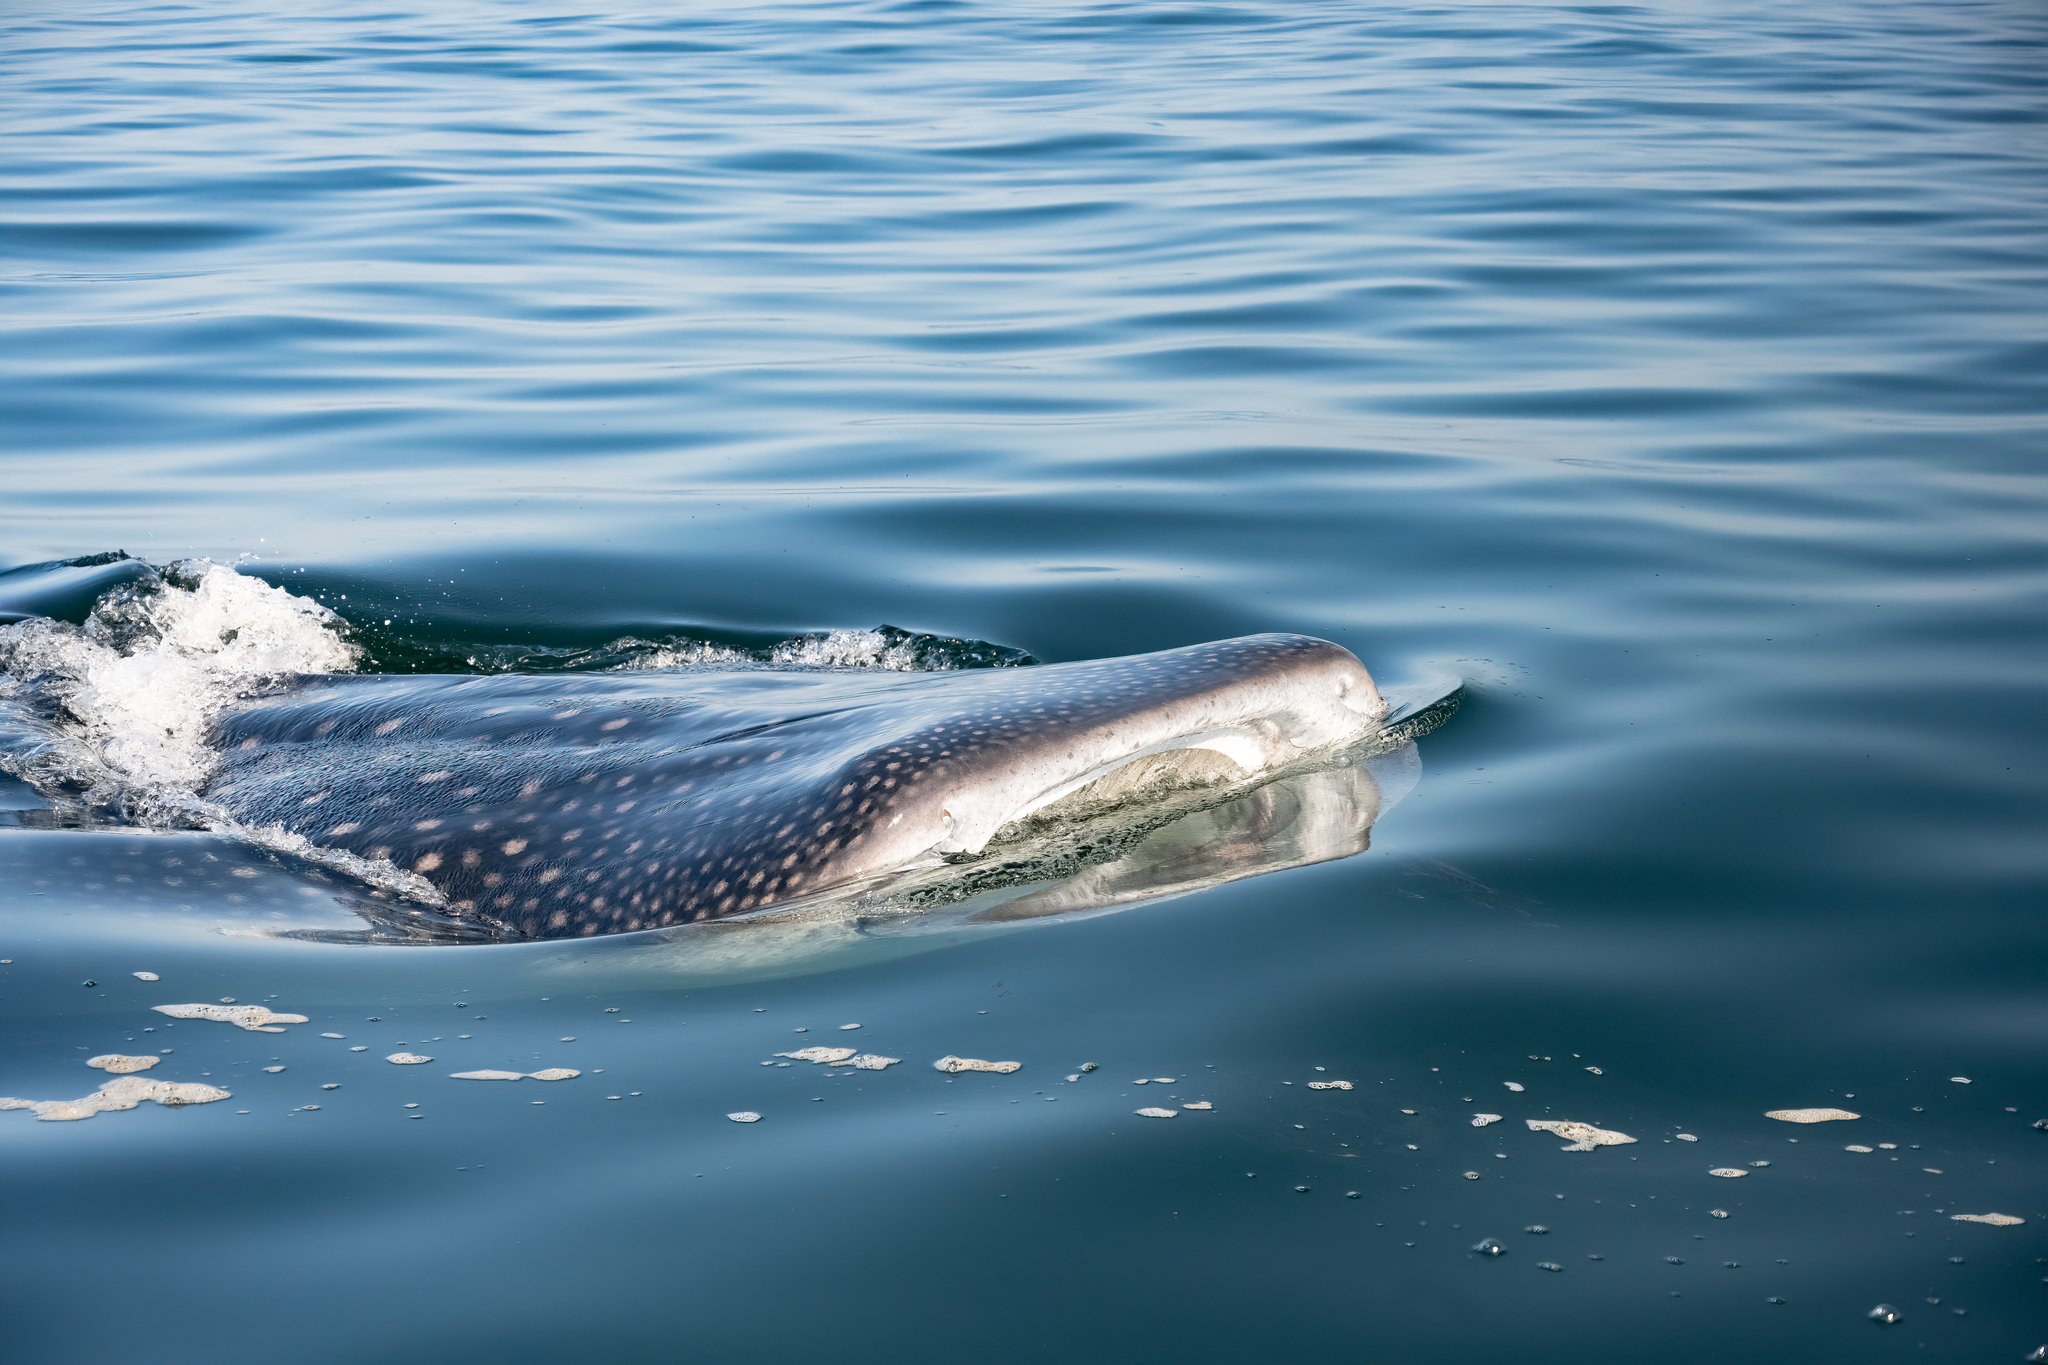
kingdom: Animalia
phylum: Chordata
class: Elasmobranchii
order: Orectolobiformes
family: Rhincodontidae
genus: Rhincodon
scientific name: Rhincodon typus
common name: Whale shark
